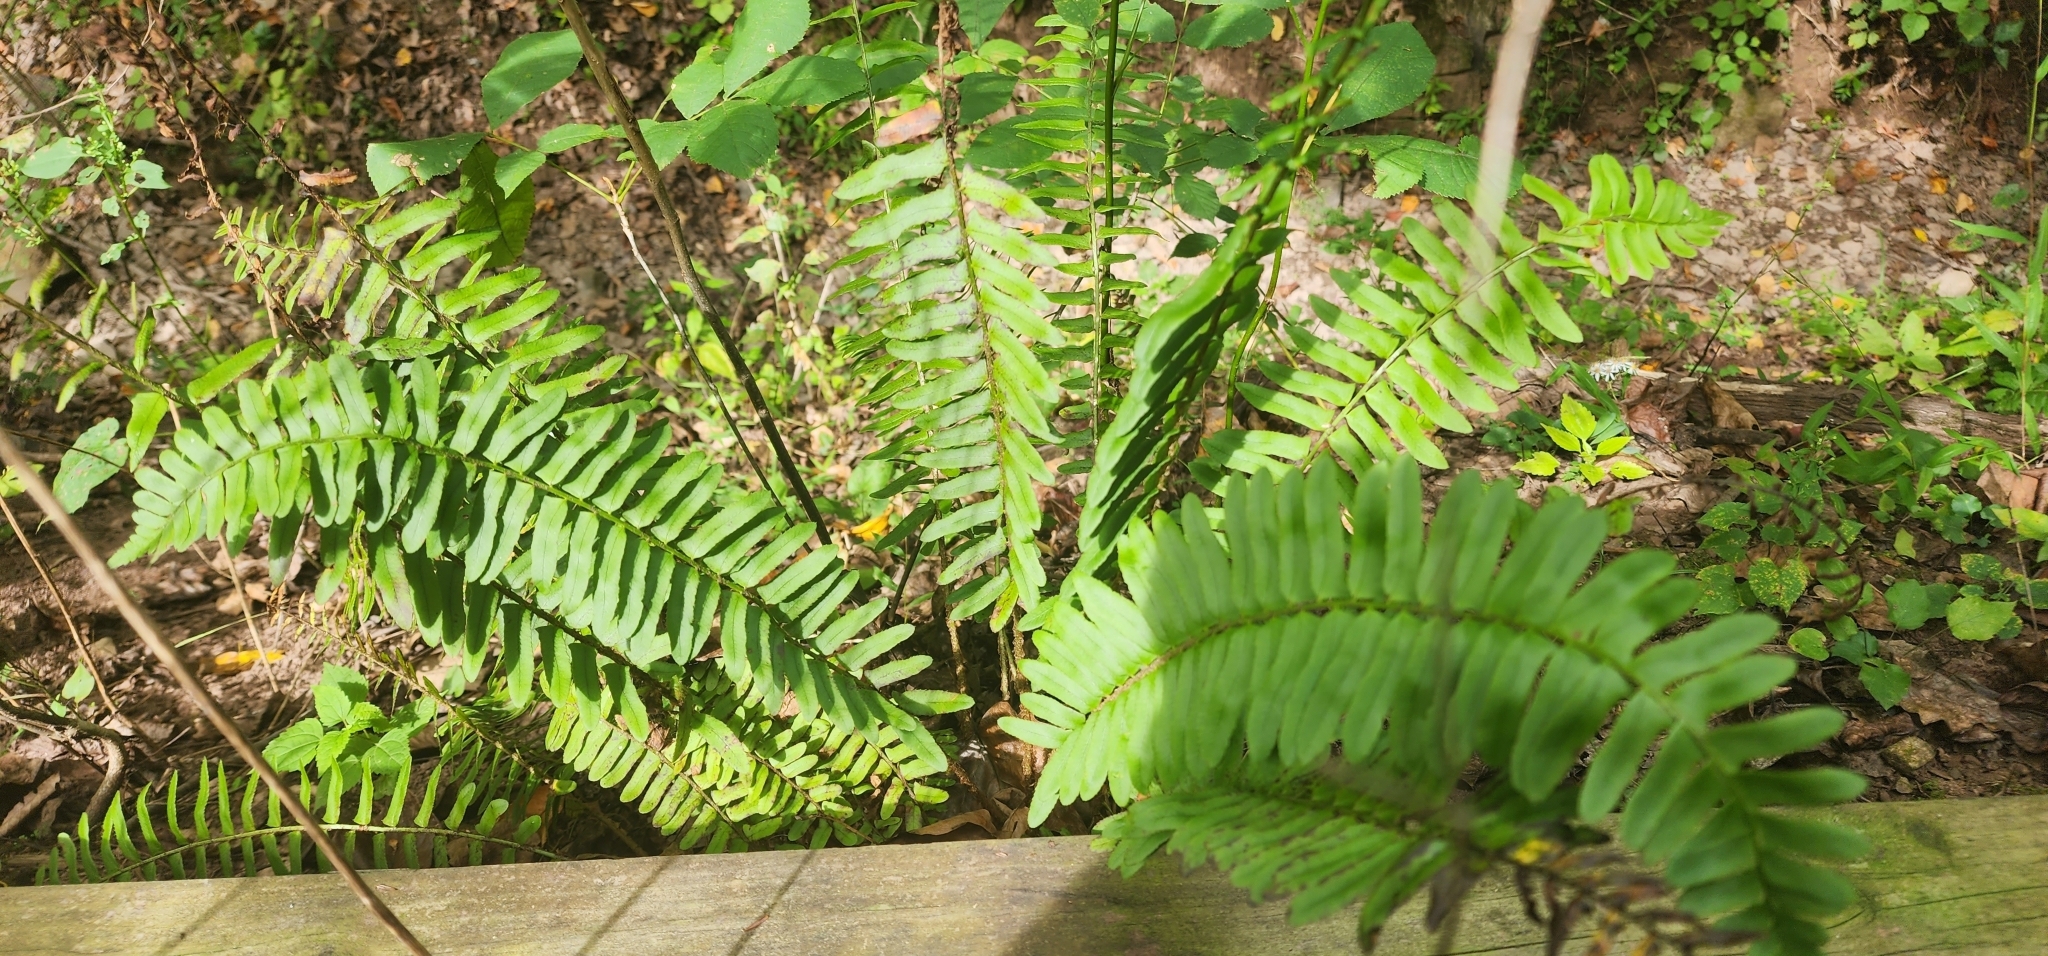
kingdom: Plantae
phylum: Tracheophyta
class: Polypodiopsida
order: Polypodiales
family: Dryopteridaceae
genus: Polystichum
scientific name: Polystichum acrostichoides
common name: Christmas fern
